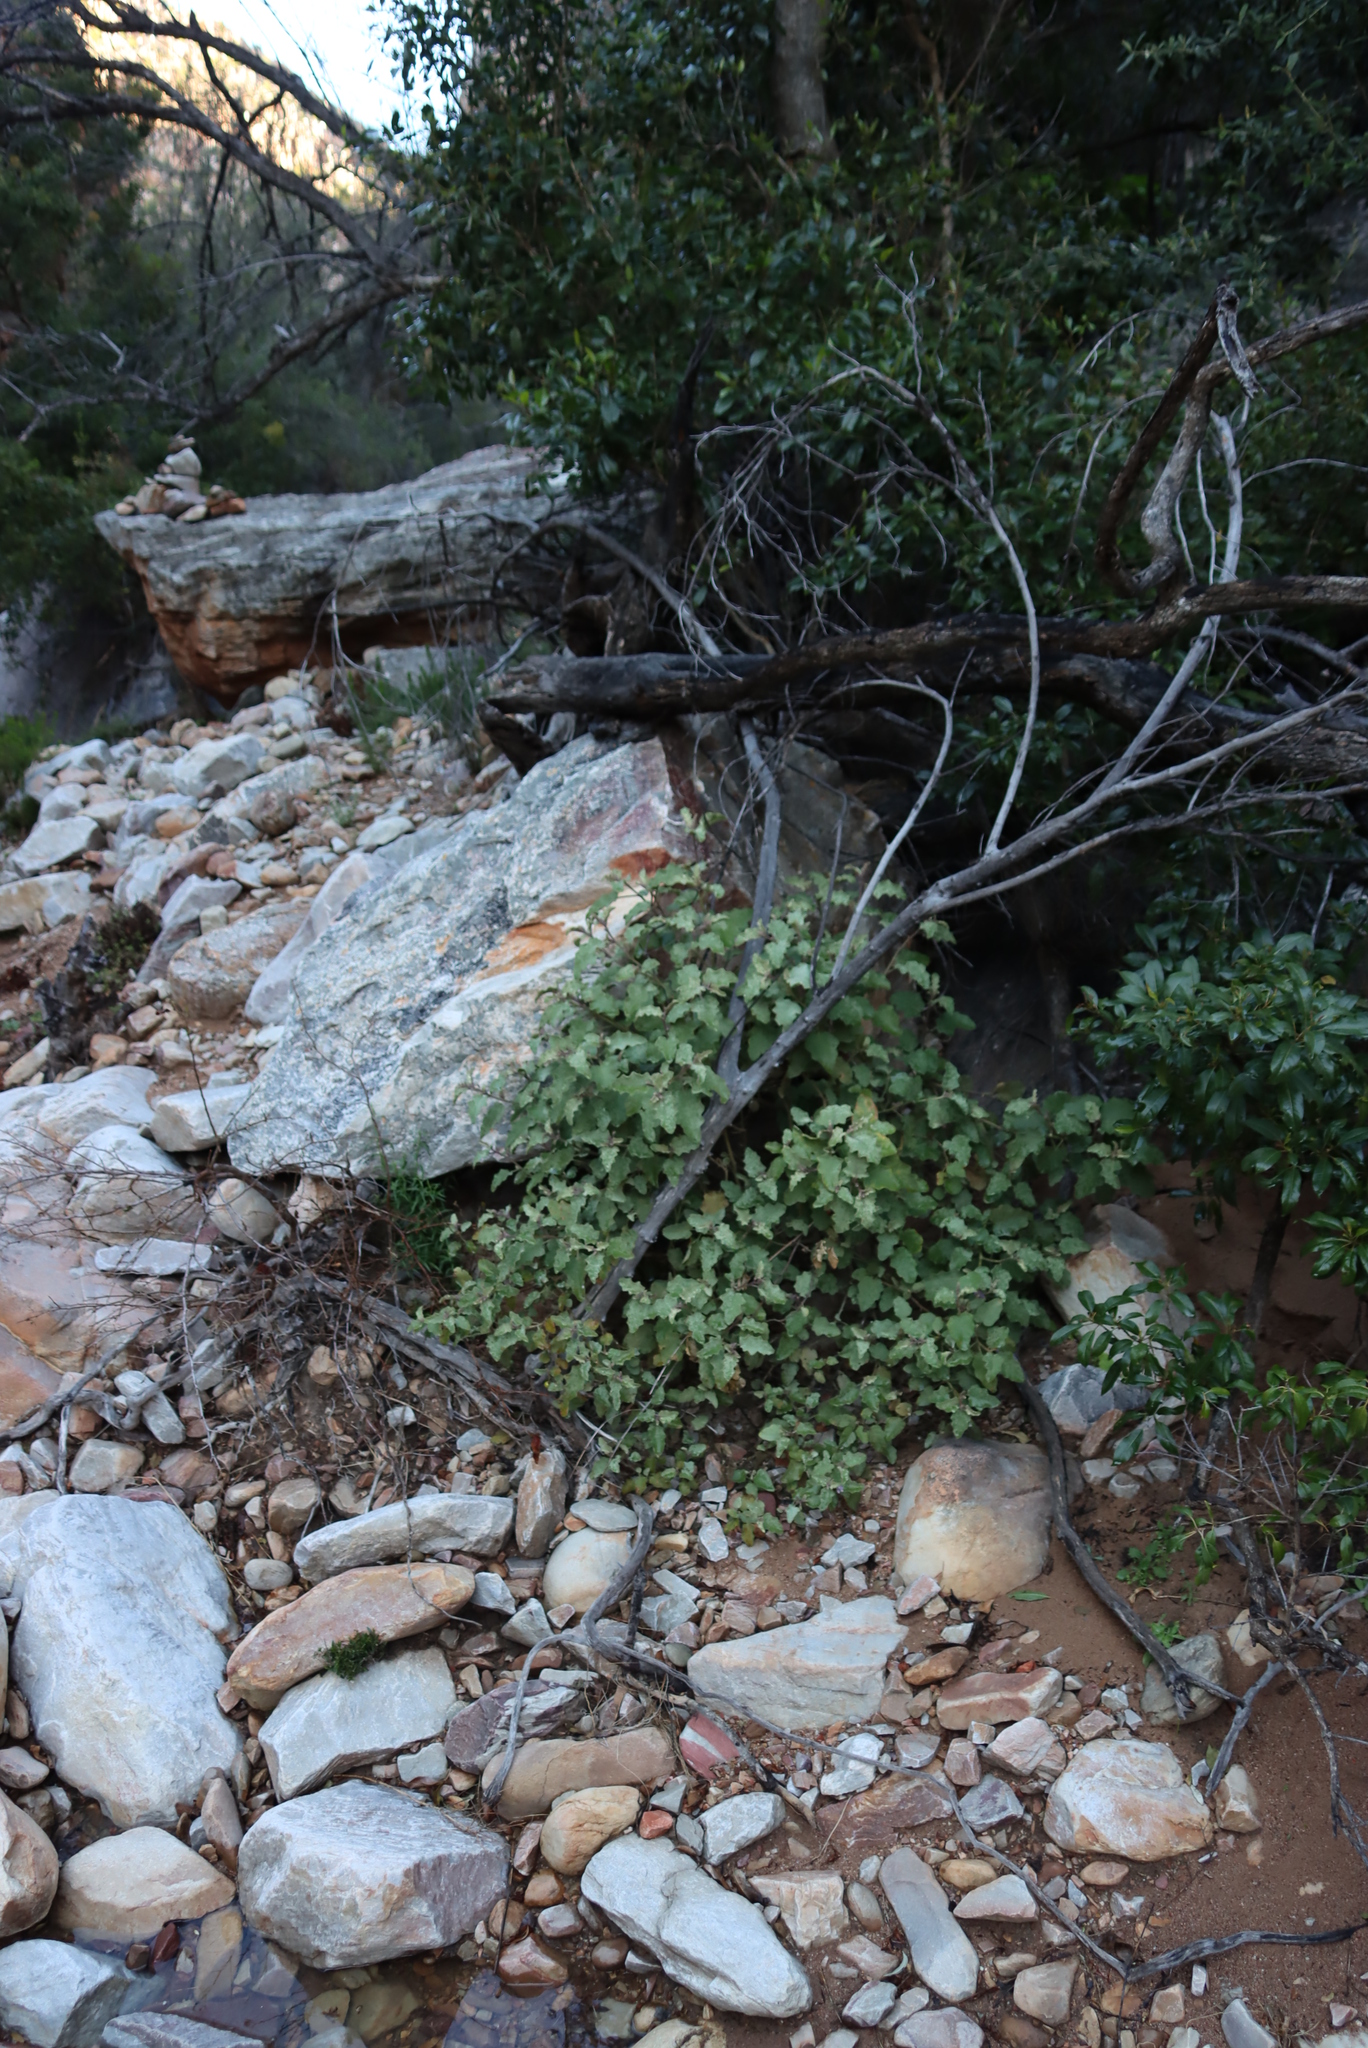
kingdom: Plantae
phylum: Tracheophyta
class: Magnoliopsida
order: Solanales
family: Solanaceae
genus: Solanum
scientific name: Solanum tomentosum
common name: Wild aubergine
